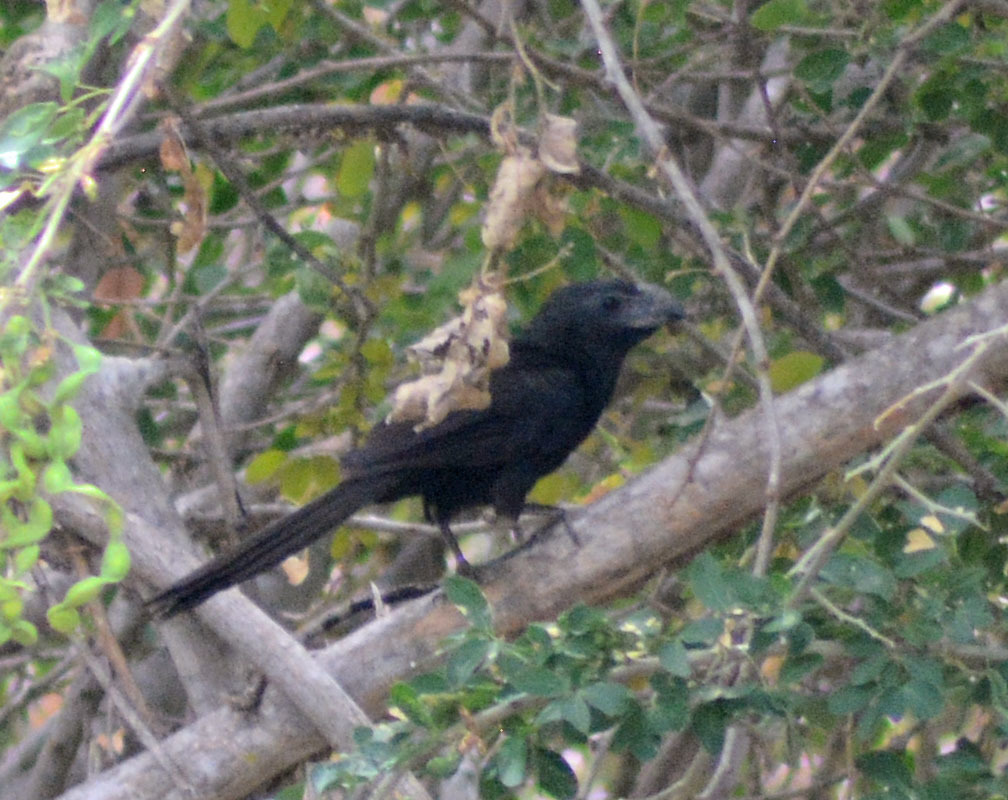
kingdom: Animalia
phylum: Chordata
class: Aves
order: Cuculiformes
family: Cuculidae
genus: Crotophaga
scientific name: Crotophaga sulcirostris
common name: Groove-billed ani
